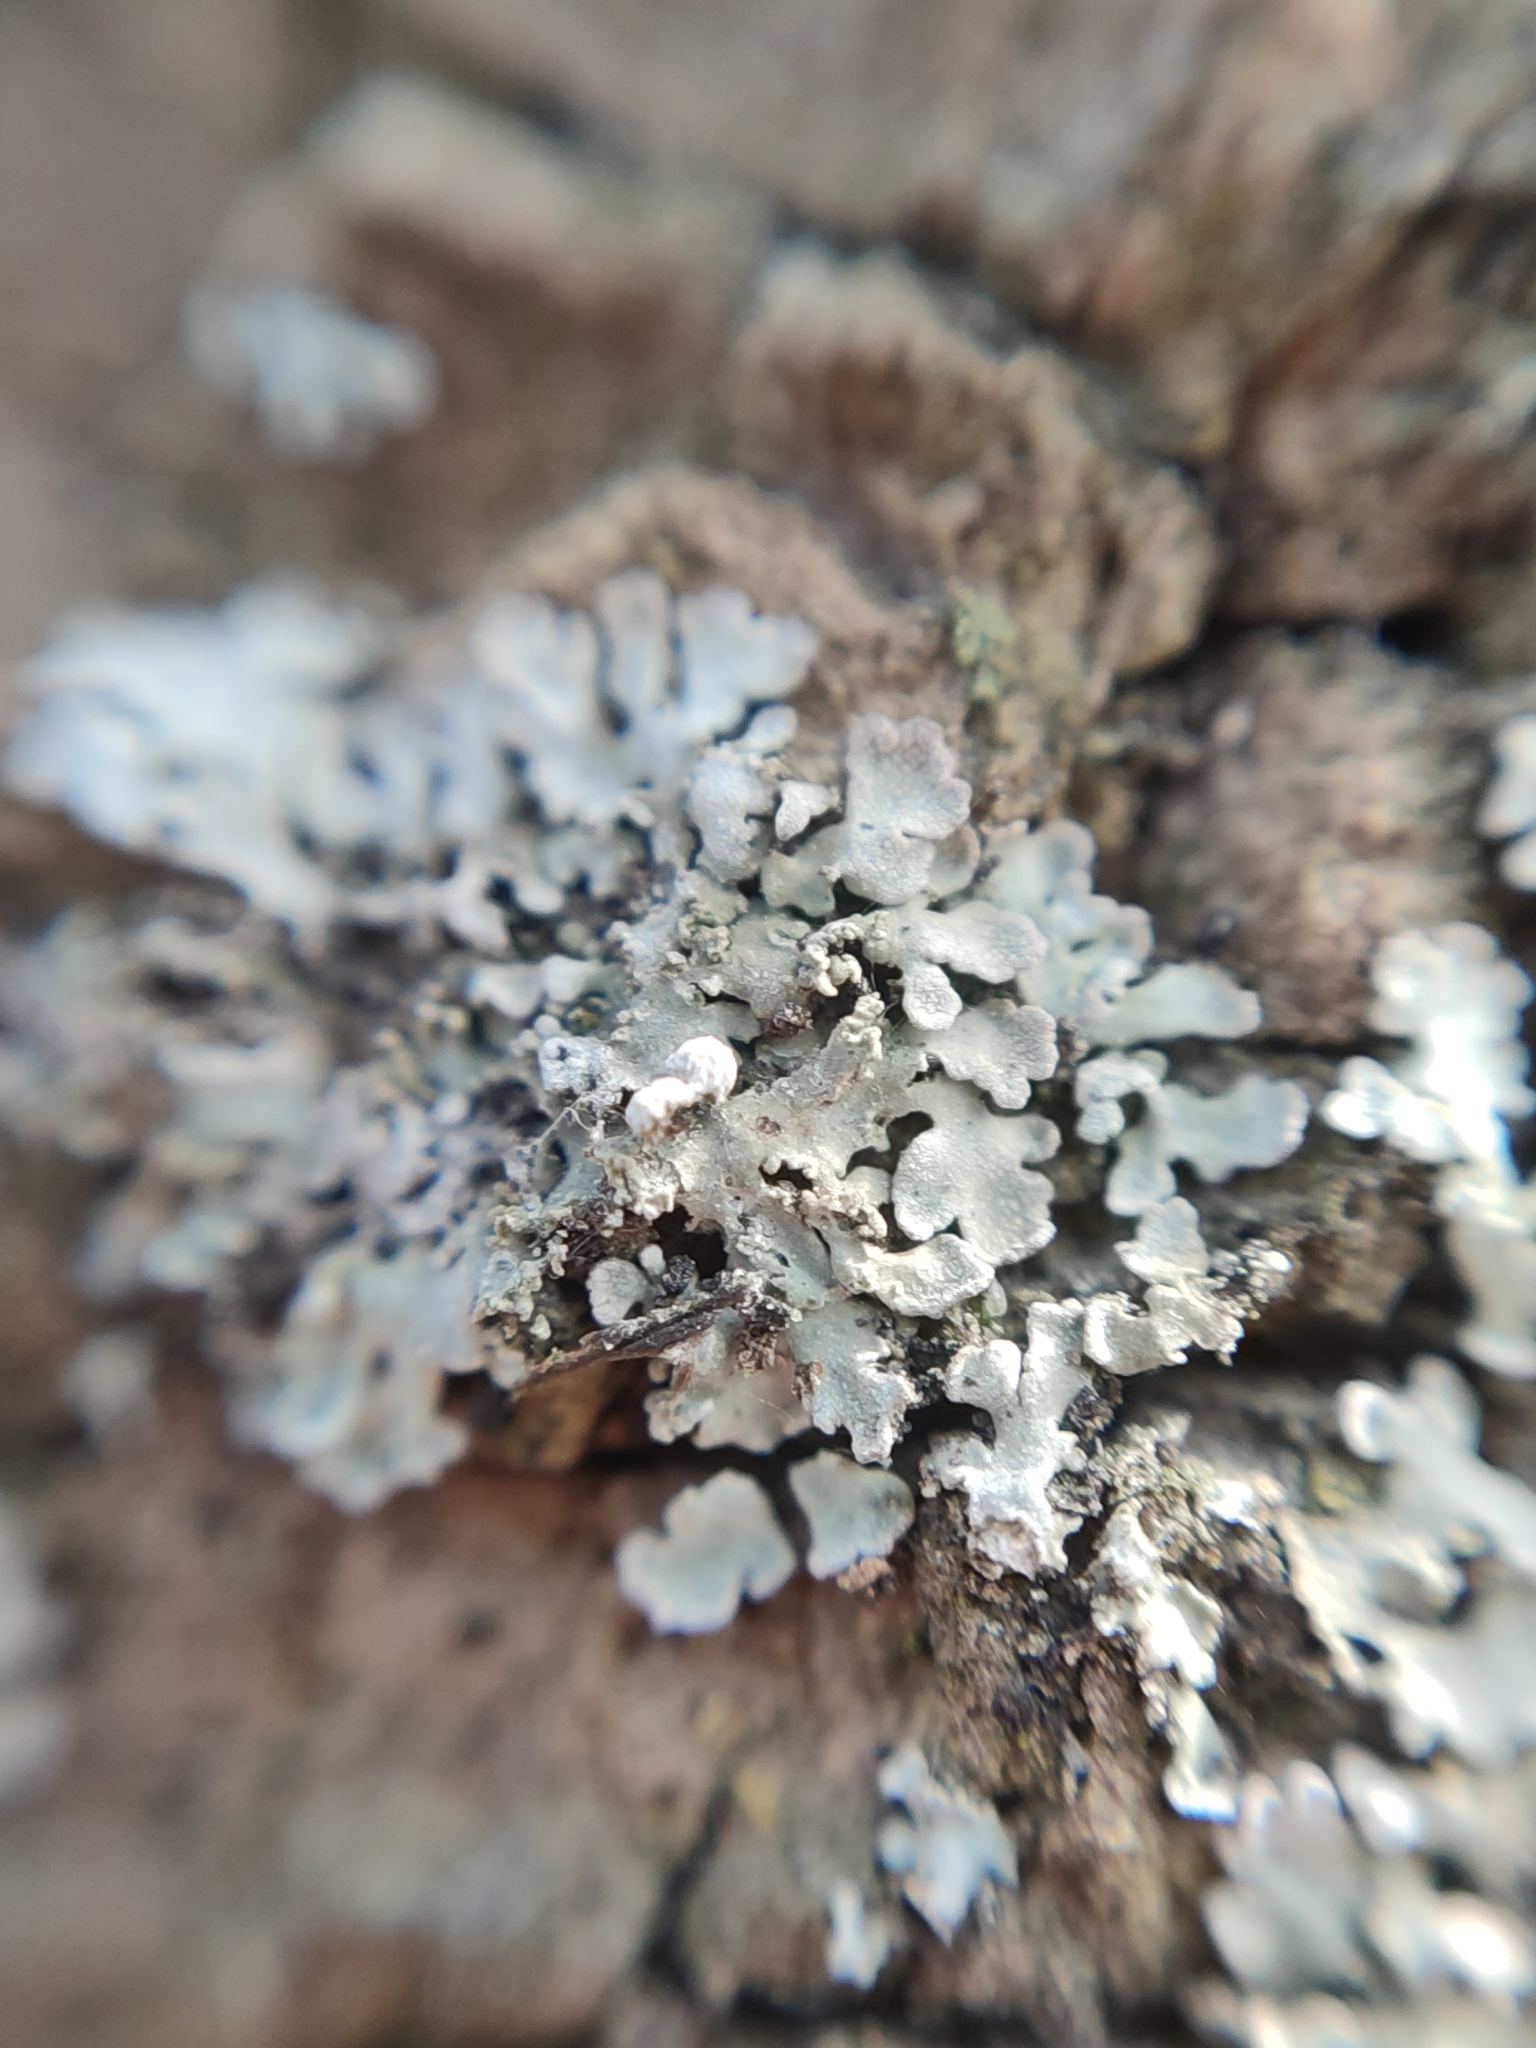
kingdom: Fungi
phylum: Ascomycota
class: Lecanoromycetes
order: Caliciales
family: Physciaceae
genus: Poeltonia
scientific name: Poeltonia grisea
